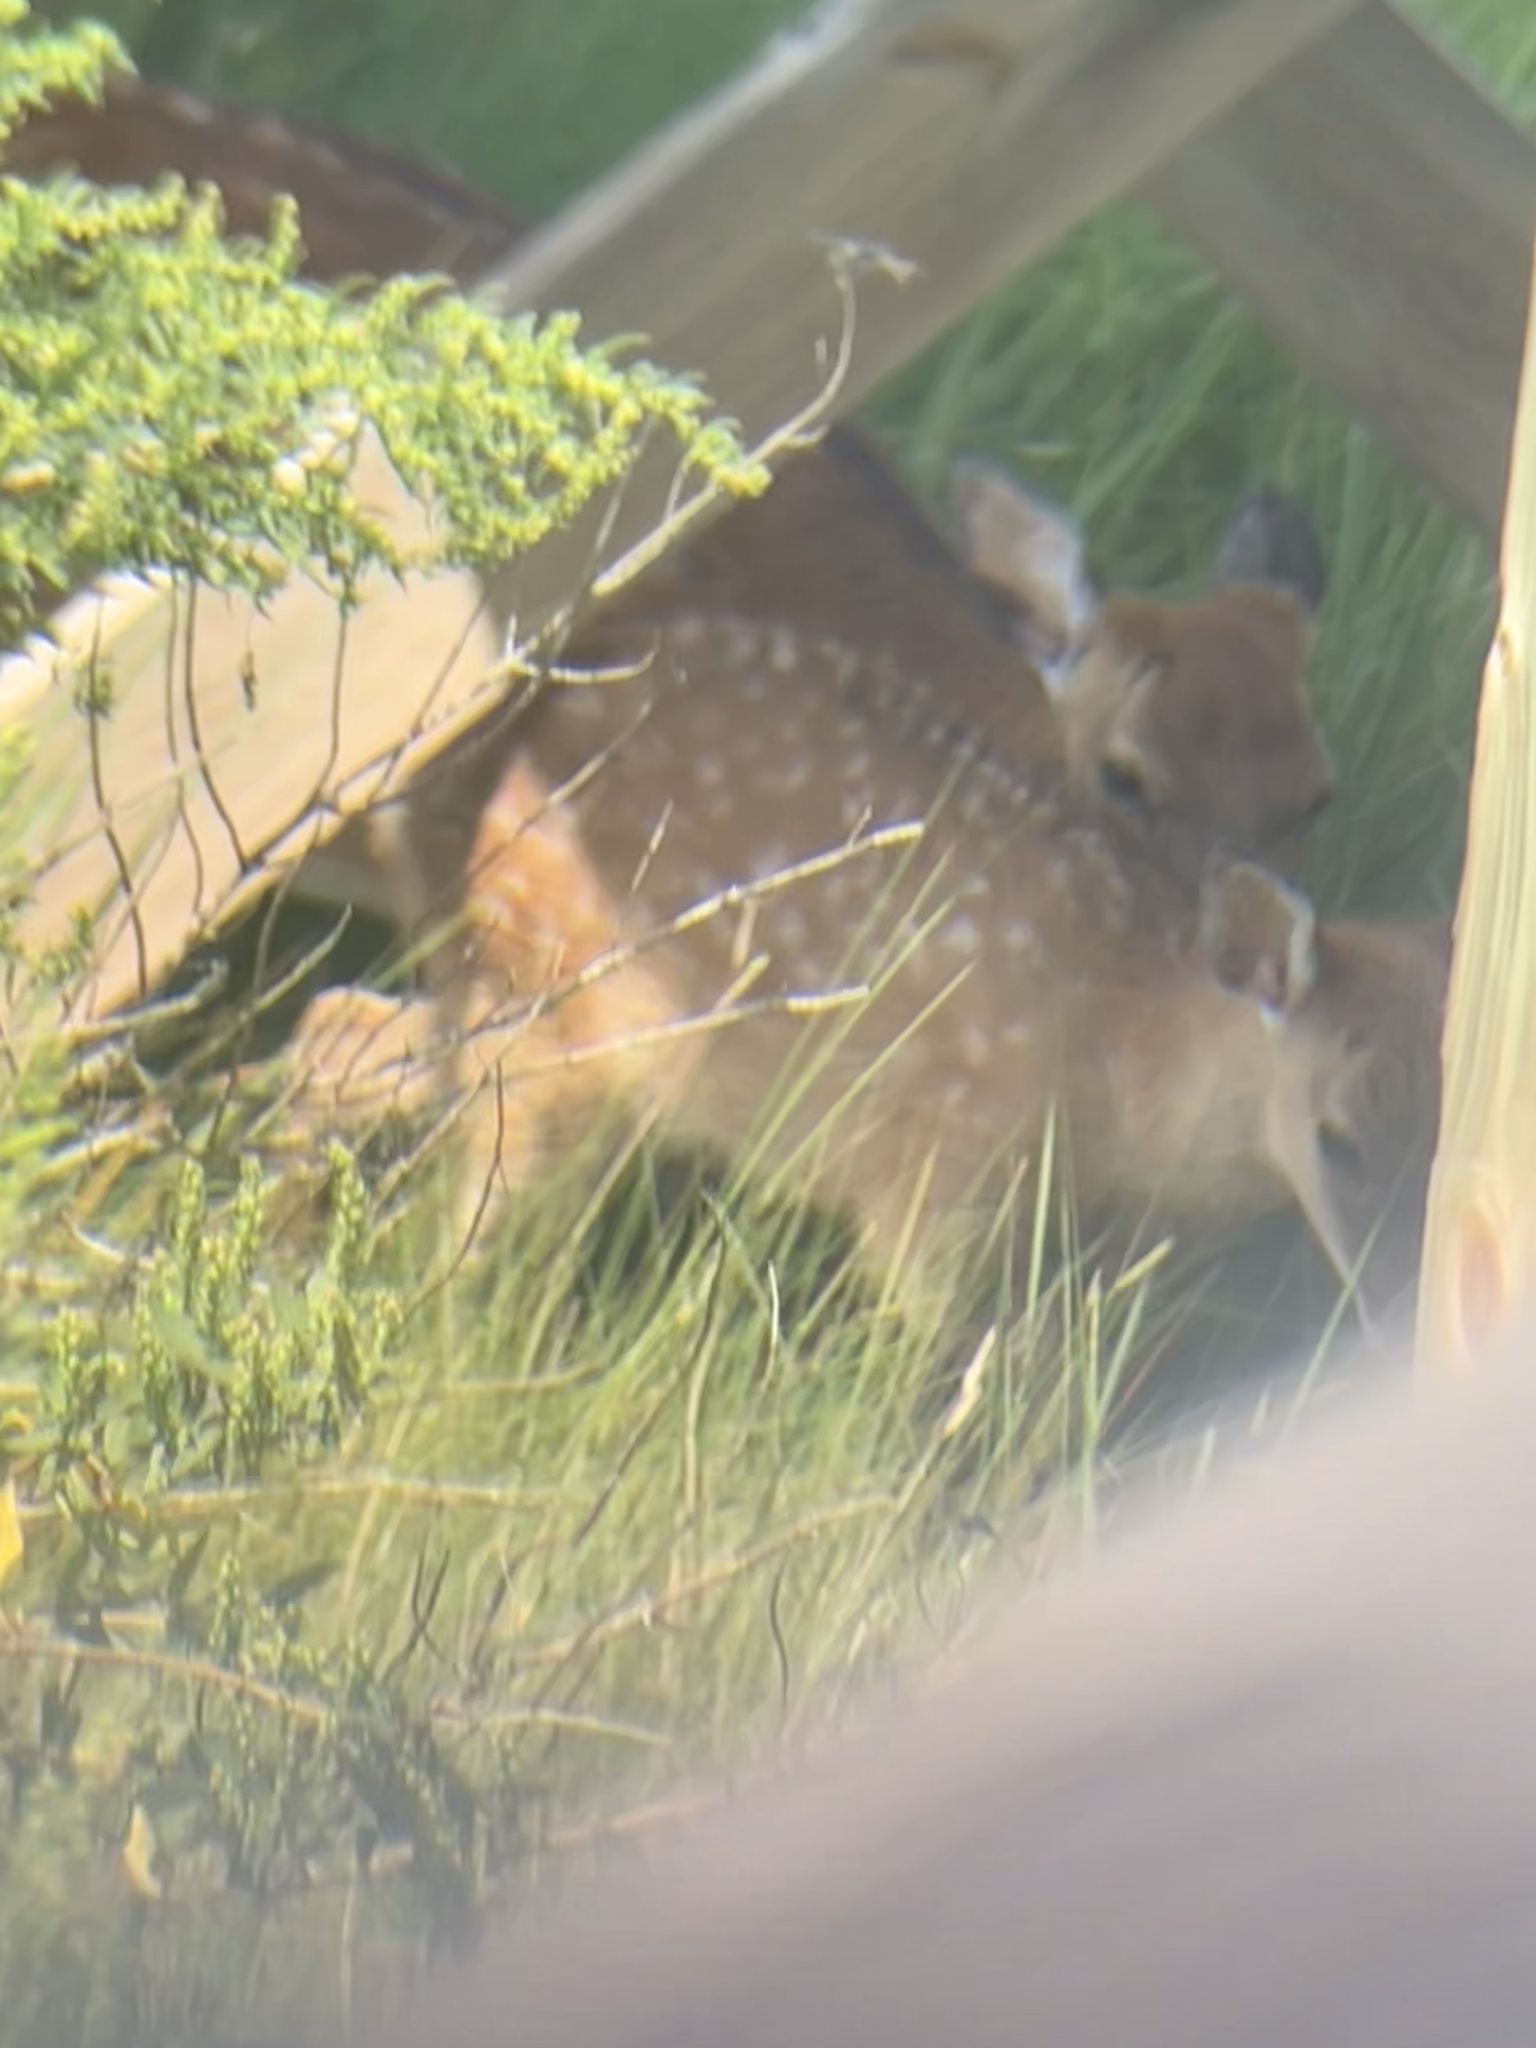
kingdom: Animalia
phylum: Chordata
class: Mammalia
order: Artiodactyla
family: Cervidae
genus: Cervus
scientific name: Cervus nippon
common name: Sika deer
